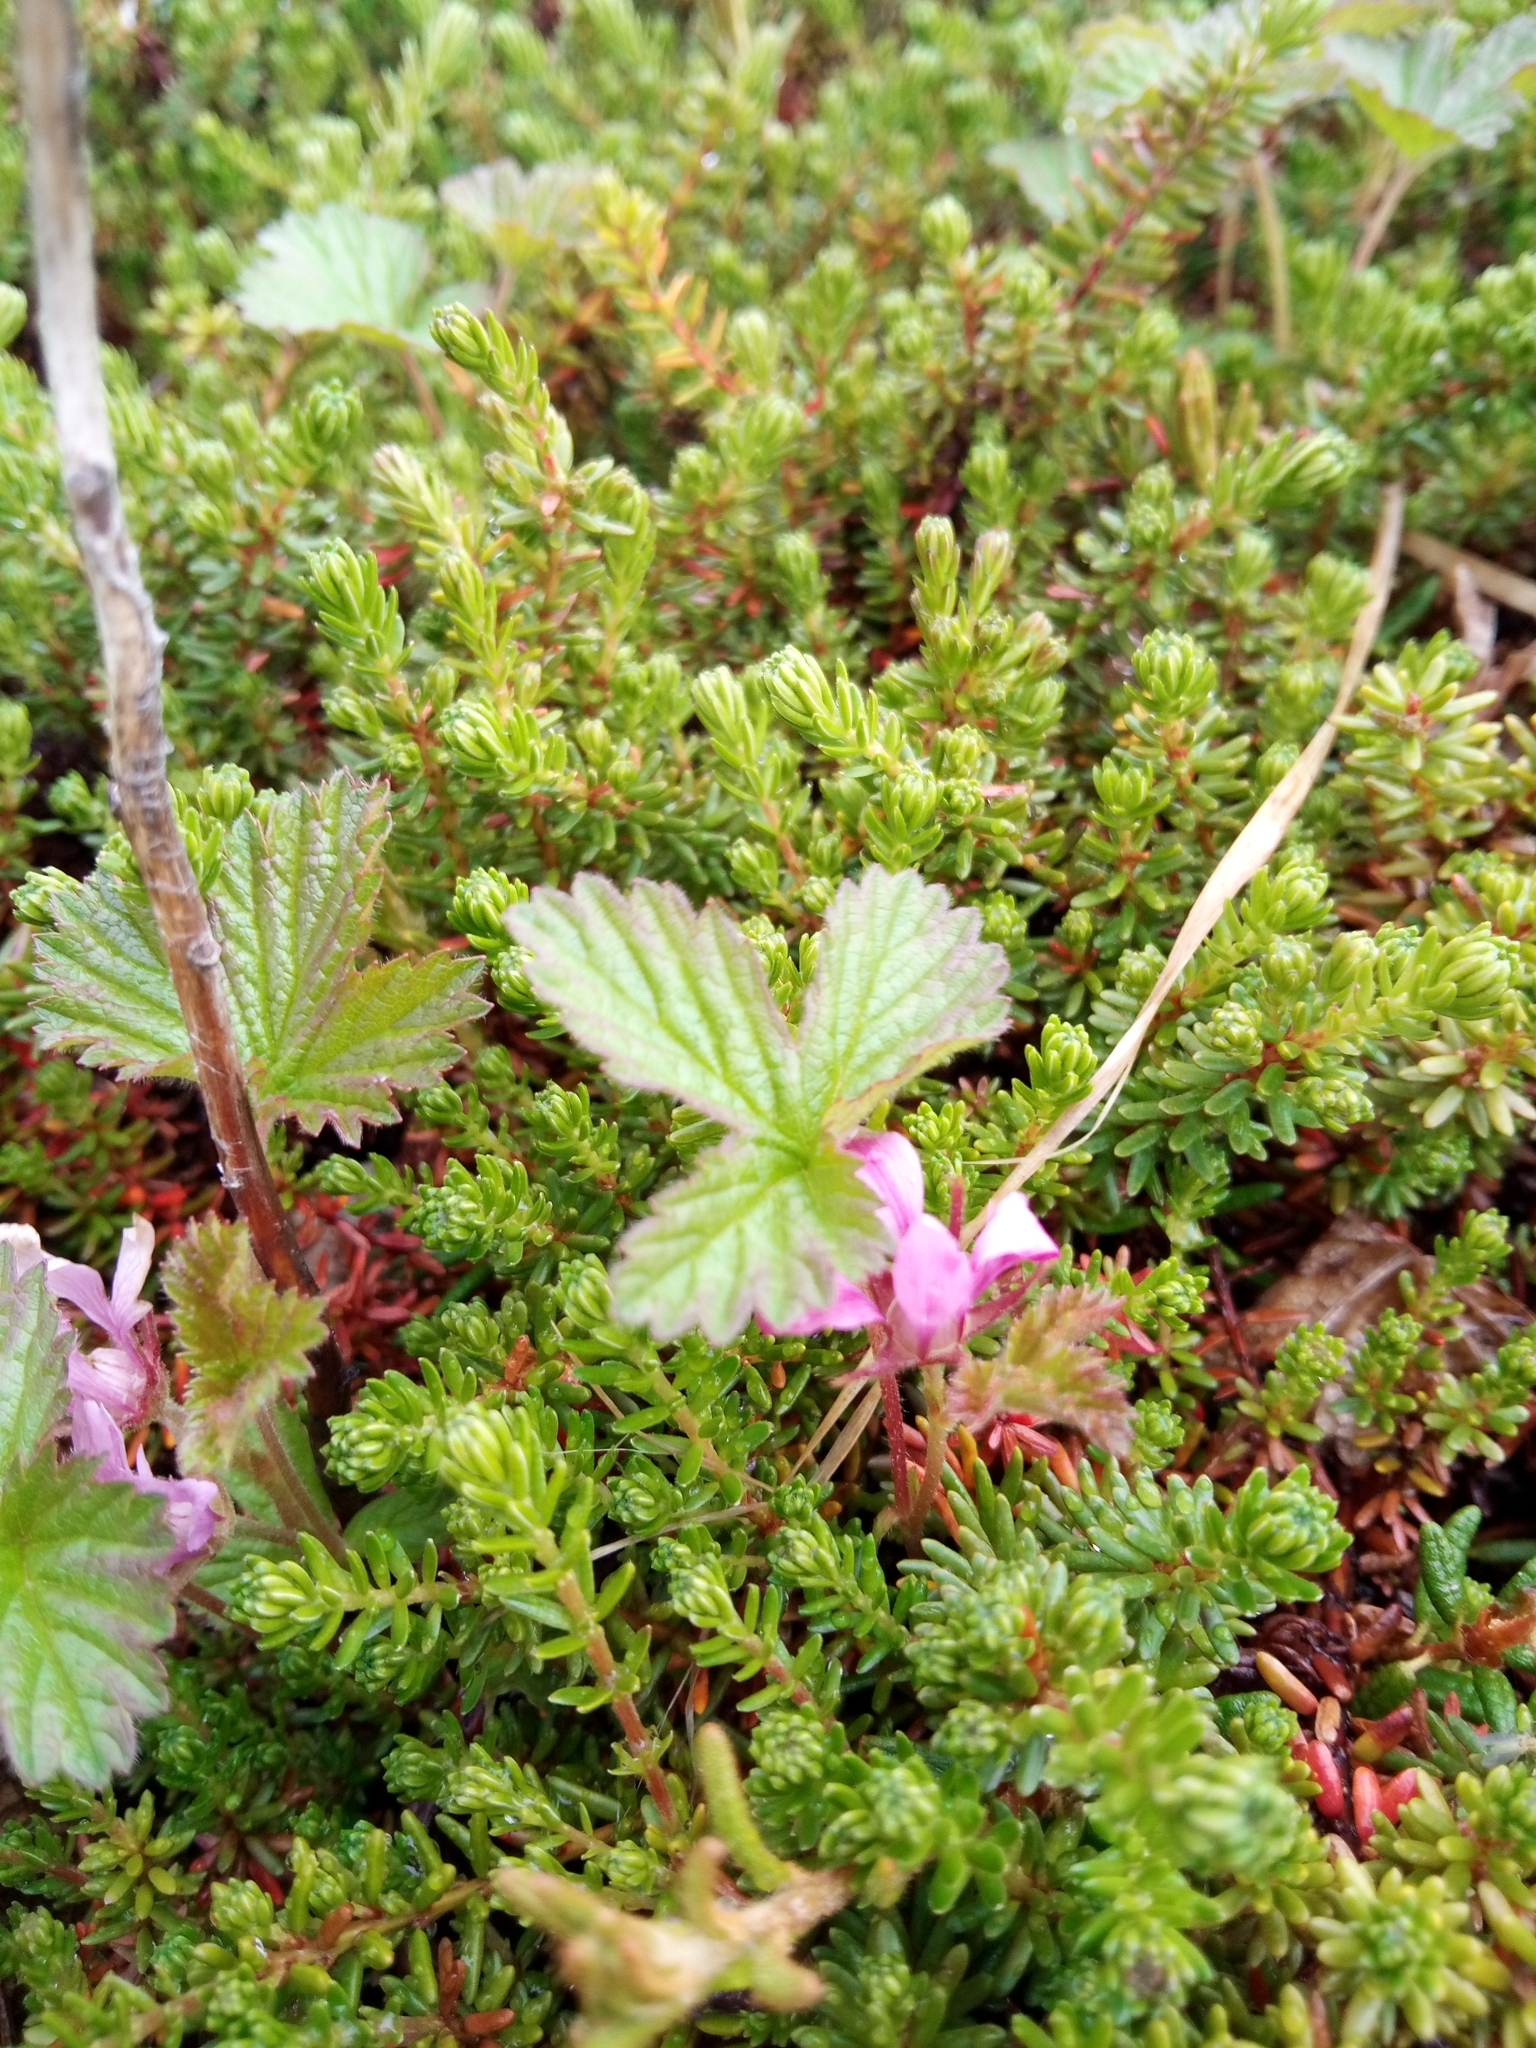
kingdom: Plantae
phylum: Tracheophyta
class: Magnoliopsida
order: Rosales
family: Rosaceae
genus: Rubus
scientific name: Rubus arcticus
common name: Arctic bramble
